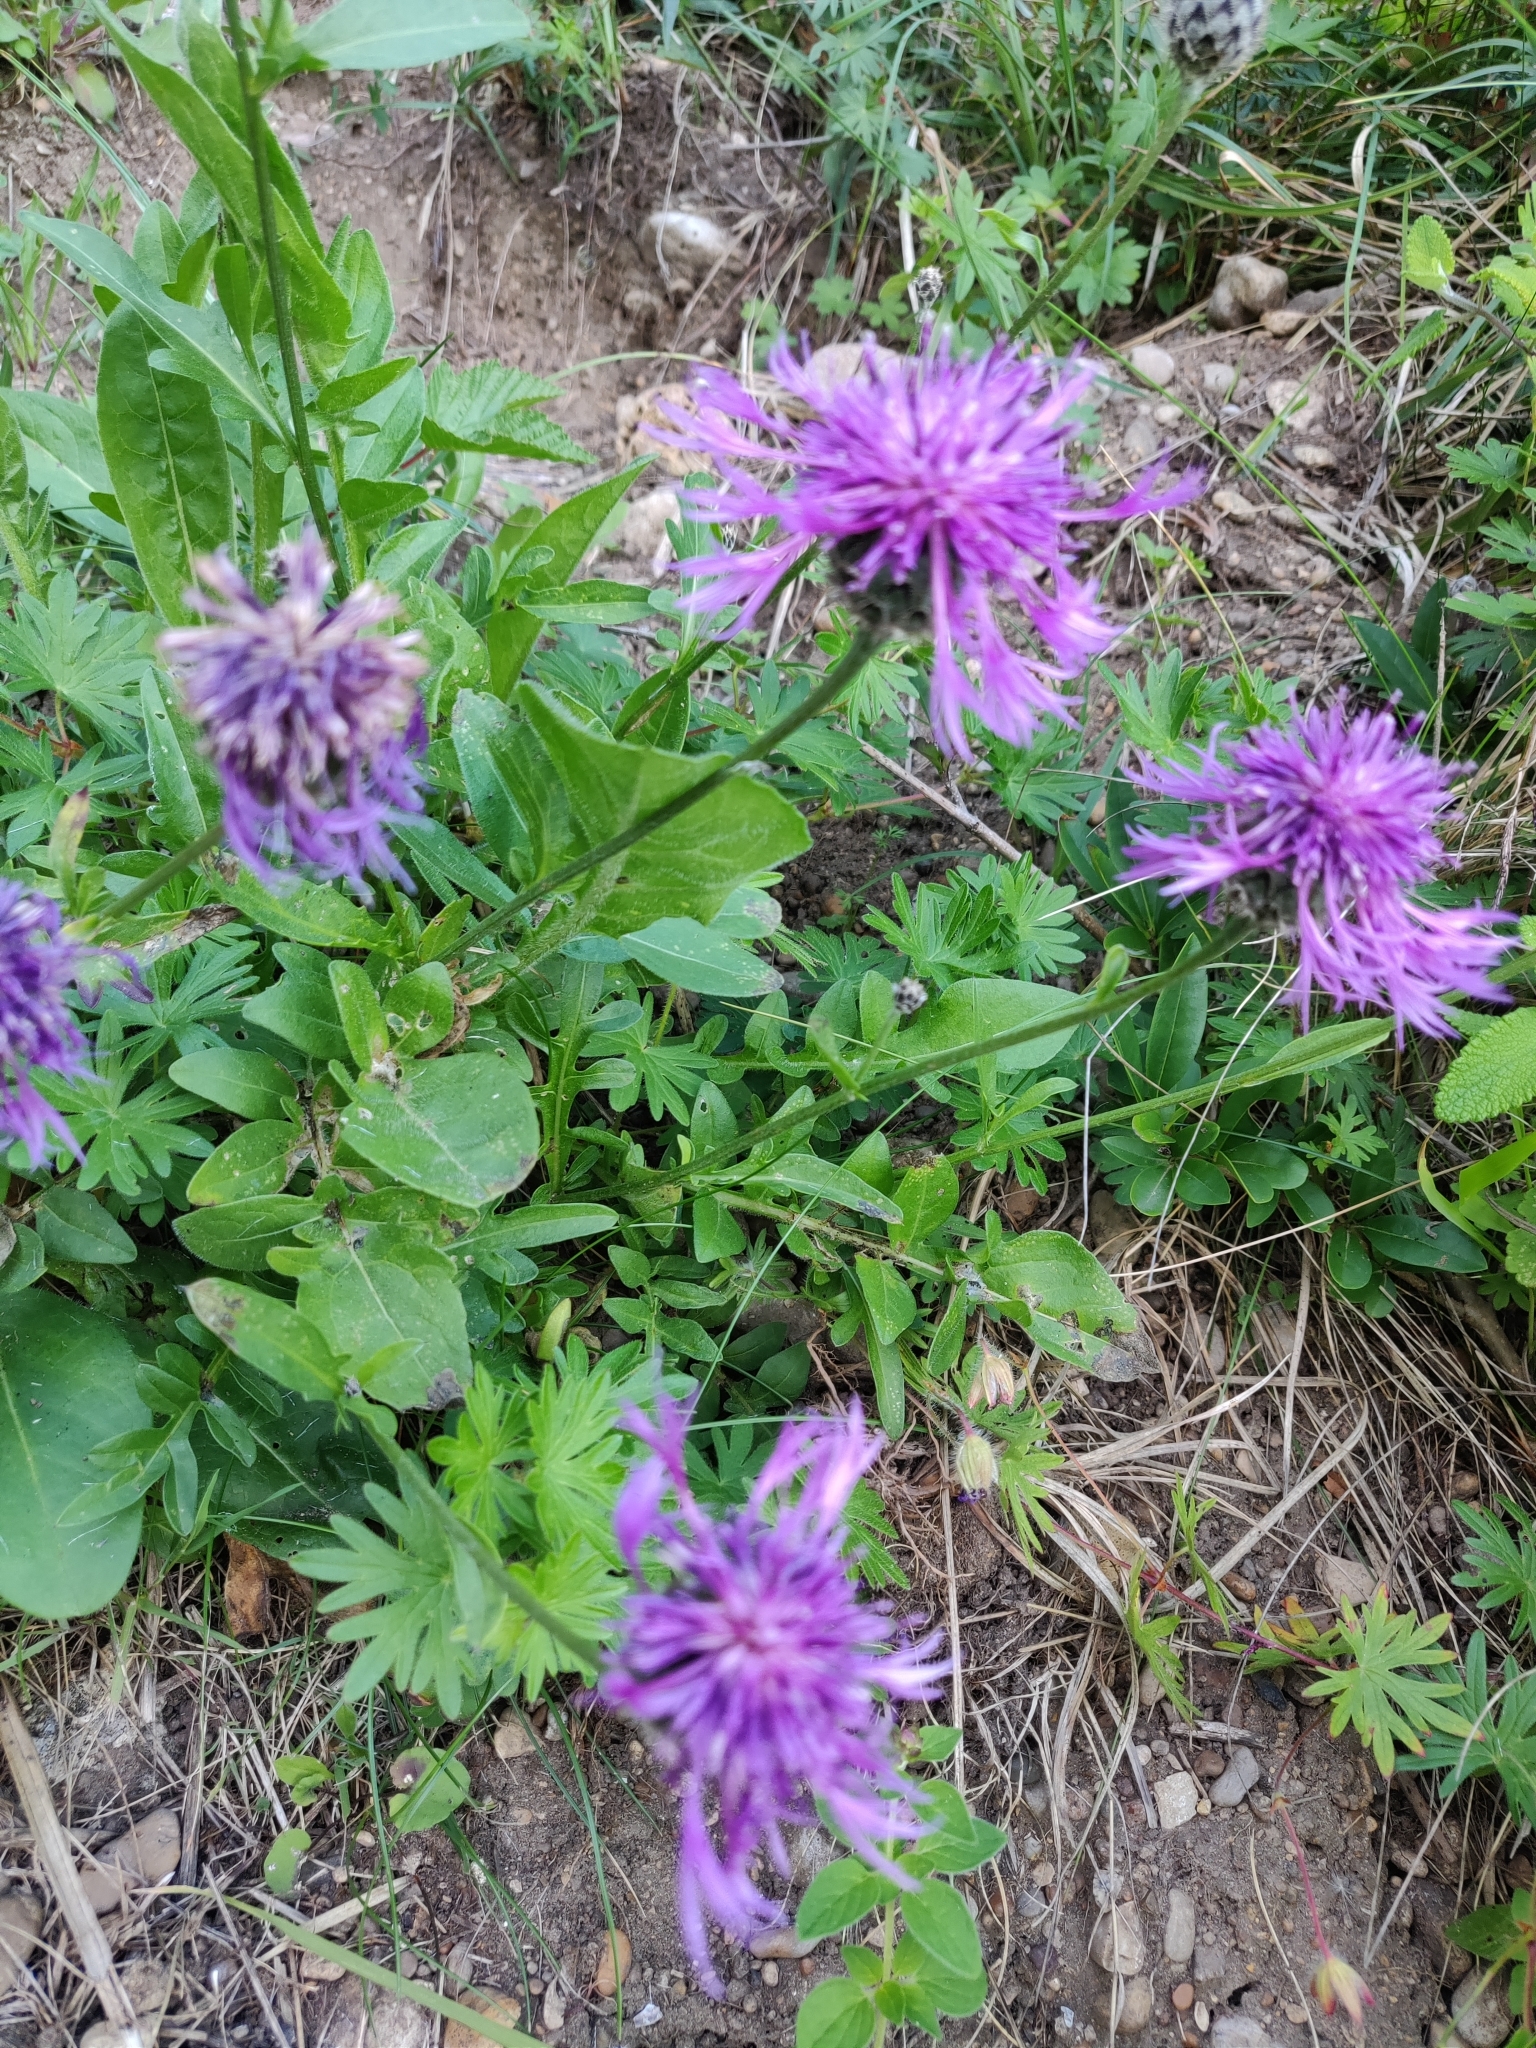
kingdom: Plantae
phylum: Tracheophyta
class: Magnoliopsida
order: Asterales
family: Asteraceae
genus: Centaurea
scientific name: Centaurea scabiosa
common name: Greater knapweed
